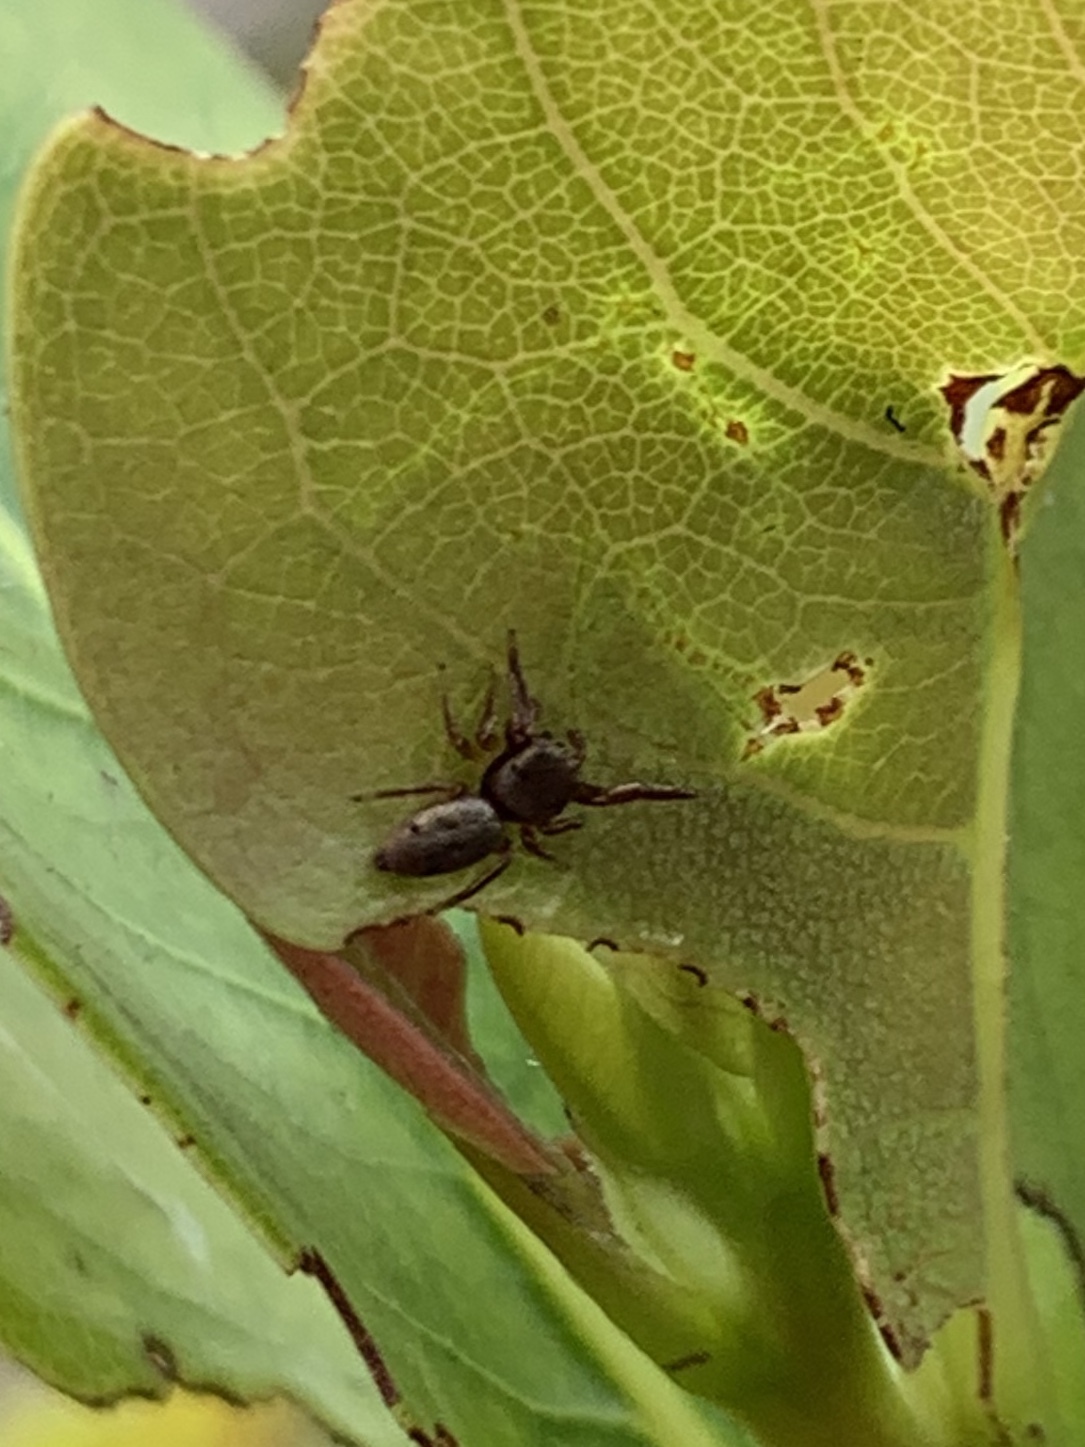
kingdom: Animalia
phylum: Arthropoda
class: Arachnida
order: Araneae
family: Salticidae
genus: Beata
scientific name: Beata wickhami
